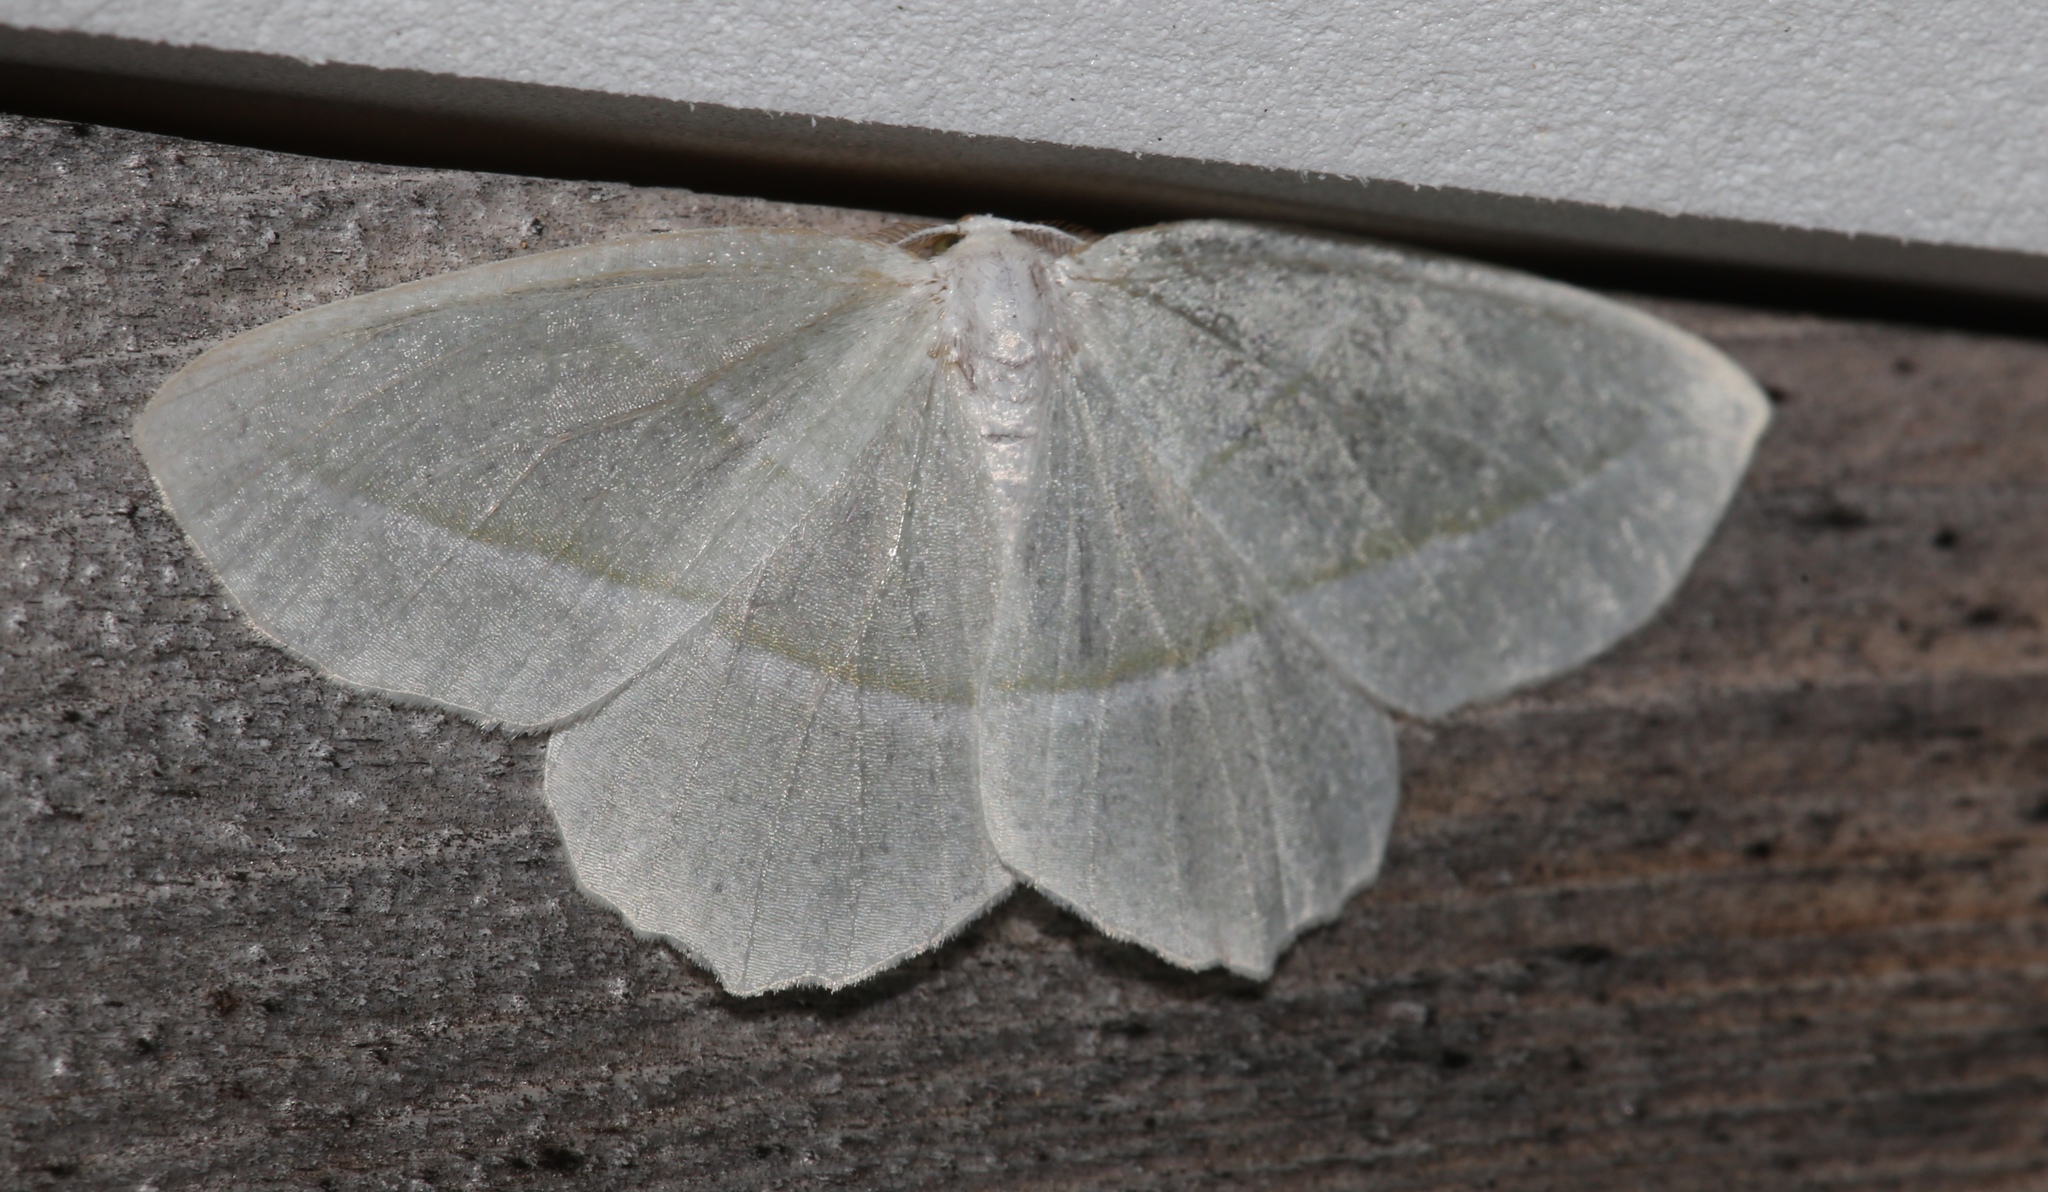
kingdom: Animalia
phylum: Arthropoda
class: Insecta
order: Lepidoptera
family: Geometridae
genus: Campaea
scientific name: Campaea perlata
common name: Fringed looper
